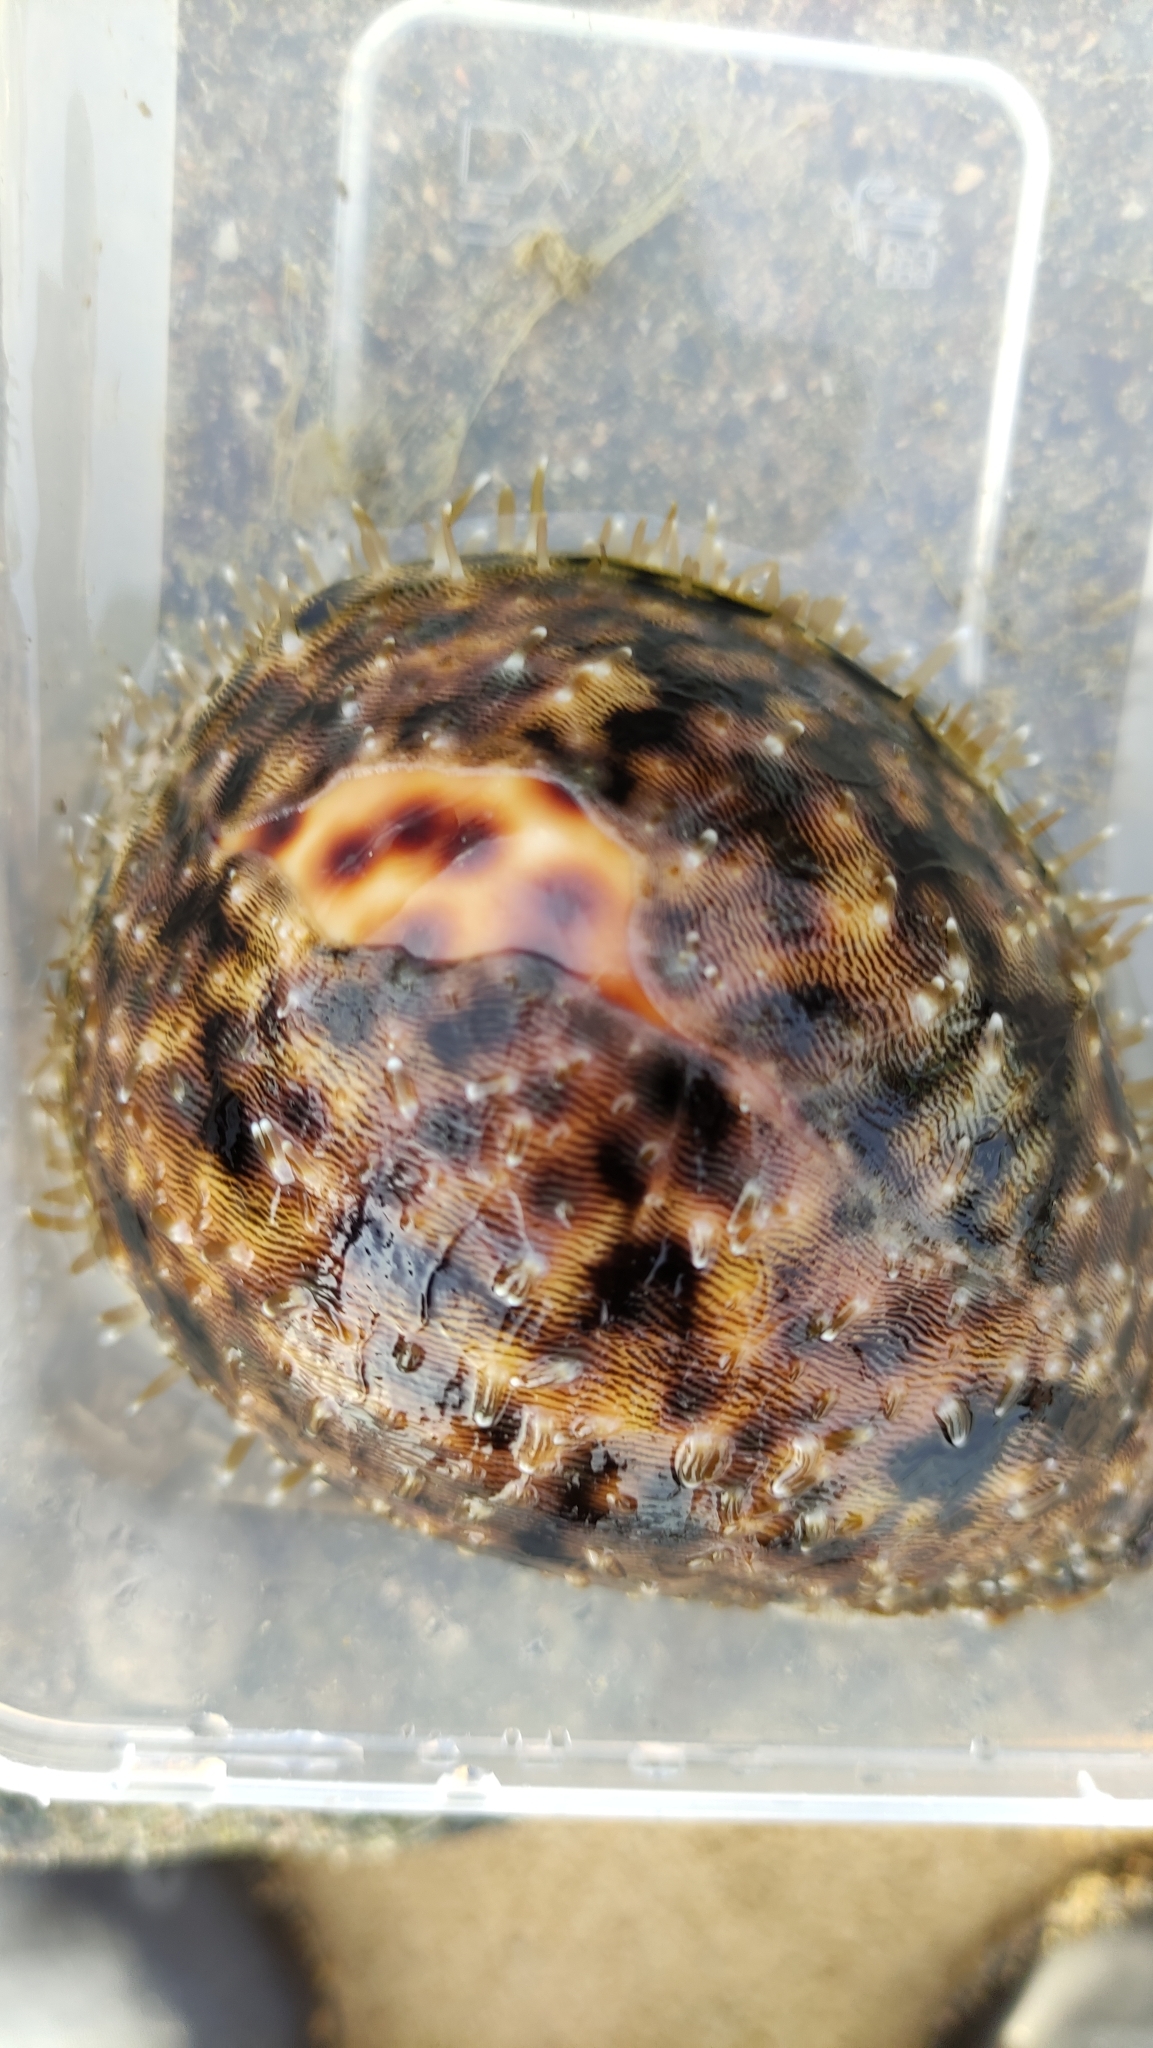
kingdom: Animalia
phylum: Mollusca
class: Gastropoda
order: Littorinimorpha
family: Cypraeidae
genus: Cypraea
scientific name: Cypraea tigris
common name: Tiger cowrie
